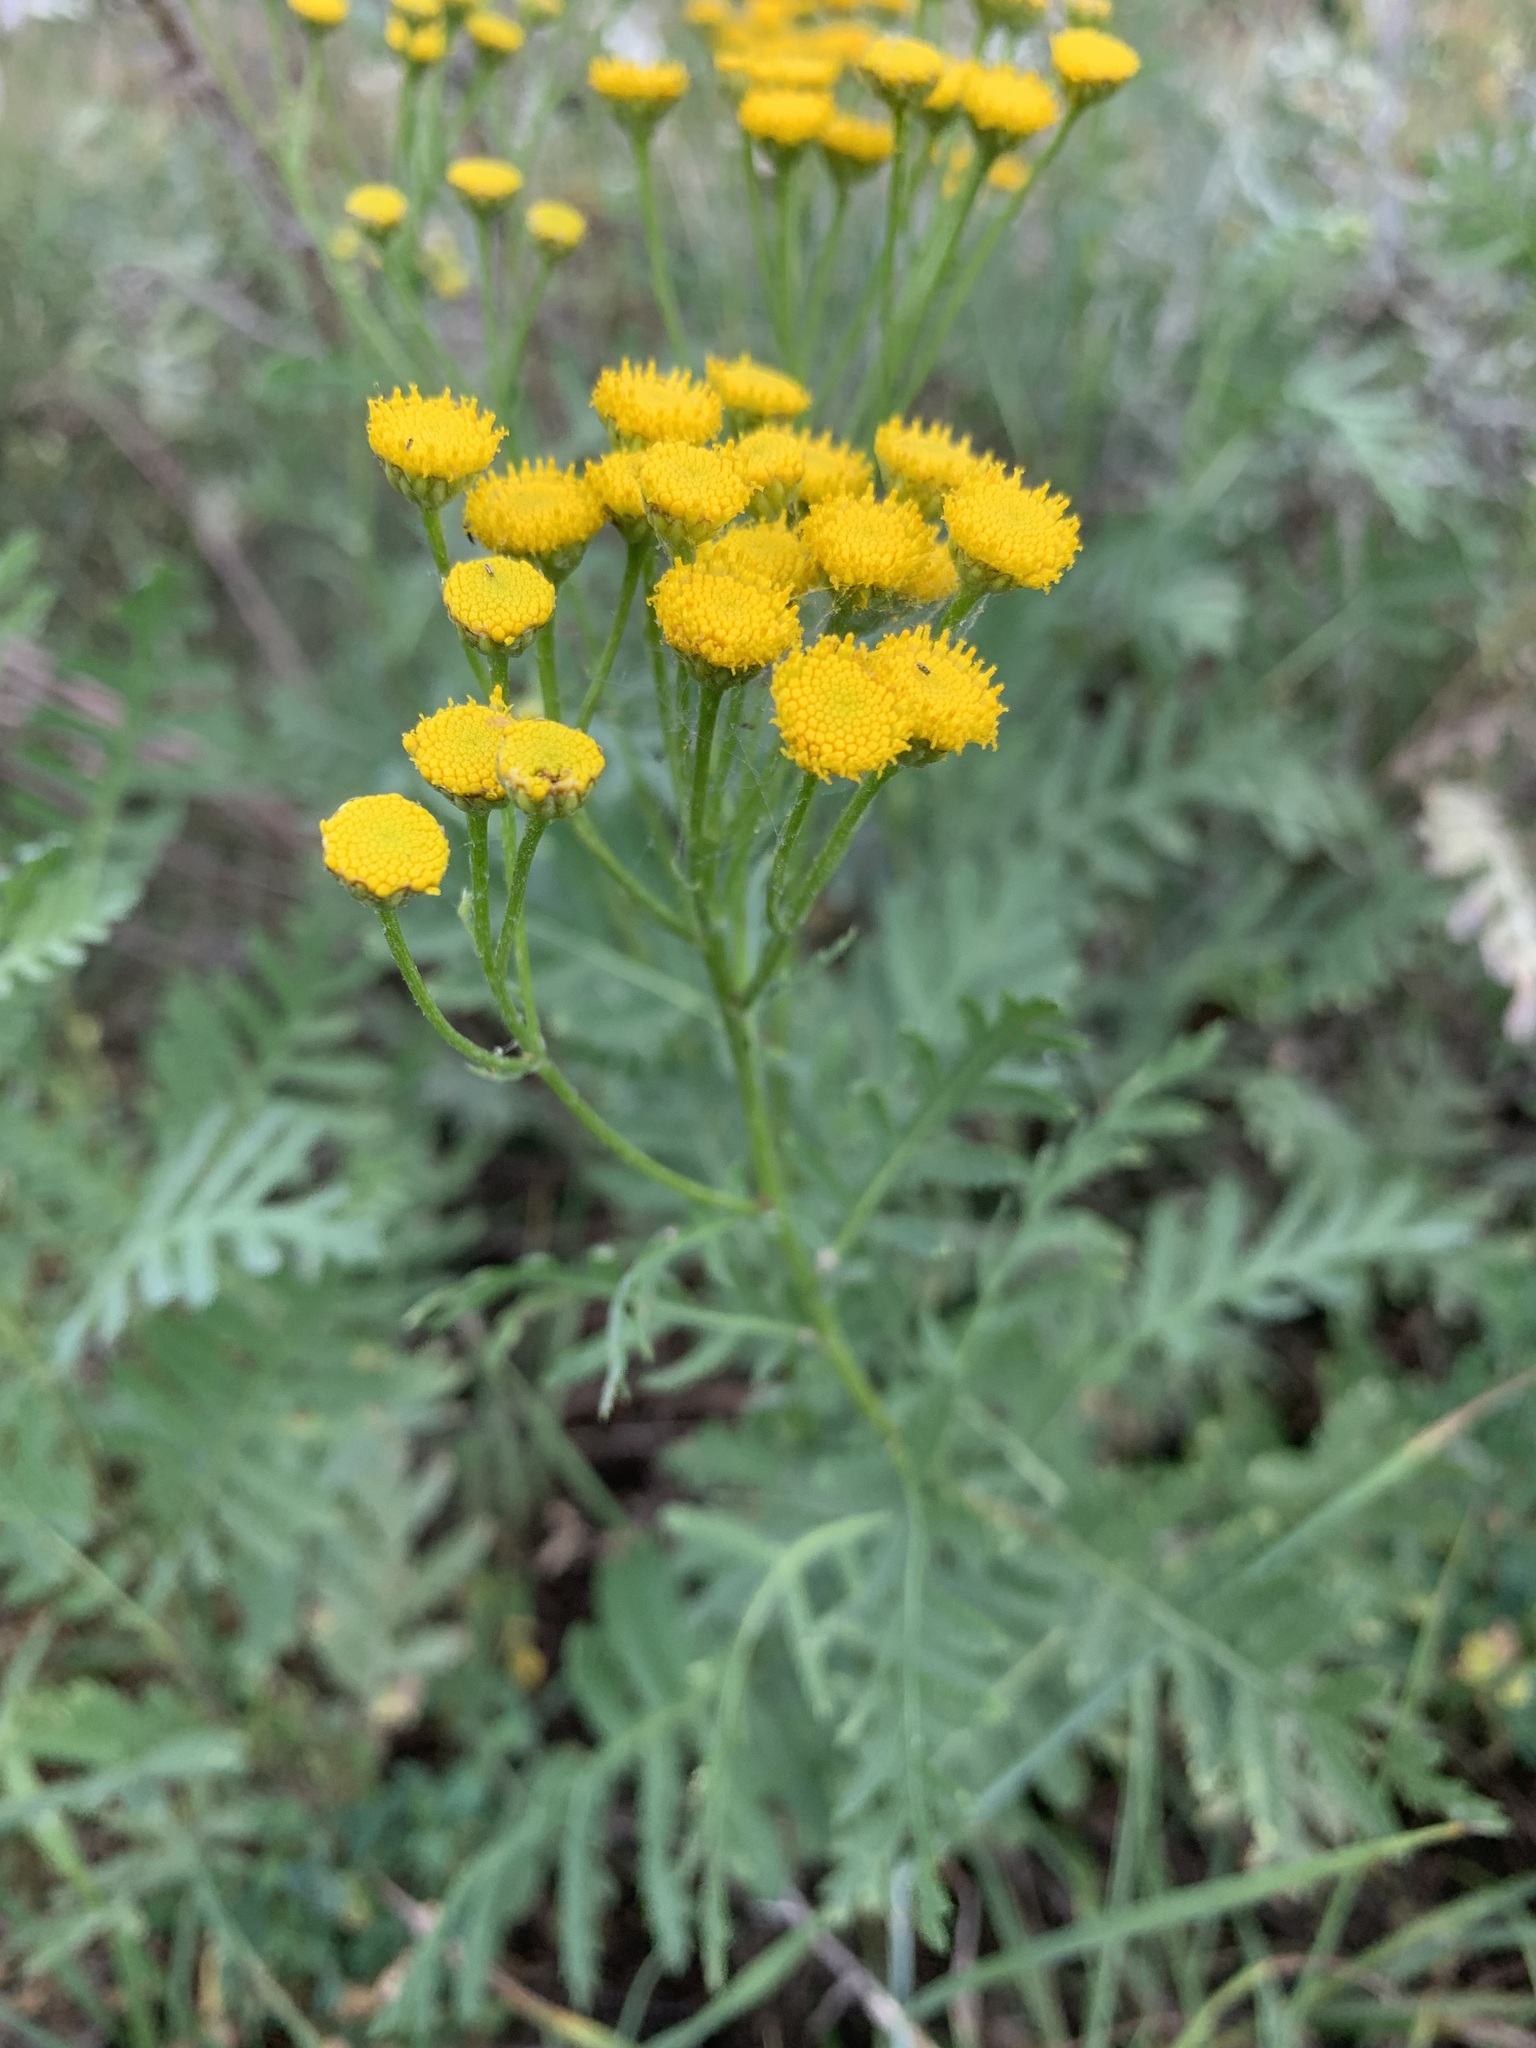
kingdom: Plantae
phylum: Tracheophyta
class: Magnoliopsida
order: Asterales
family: Asteraceae
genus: Tanacetum
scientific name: Tanacetum vulgare
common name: Common tansy
